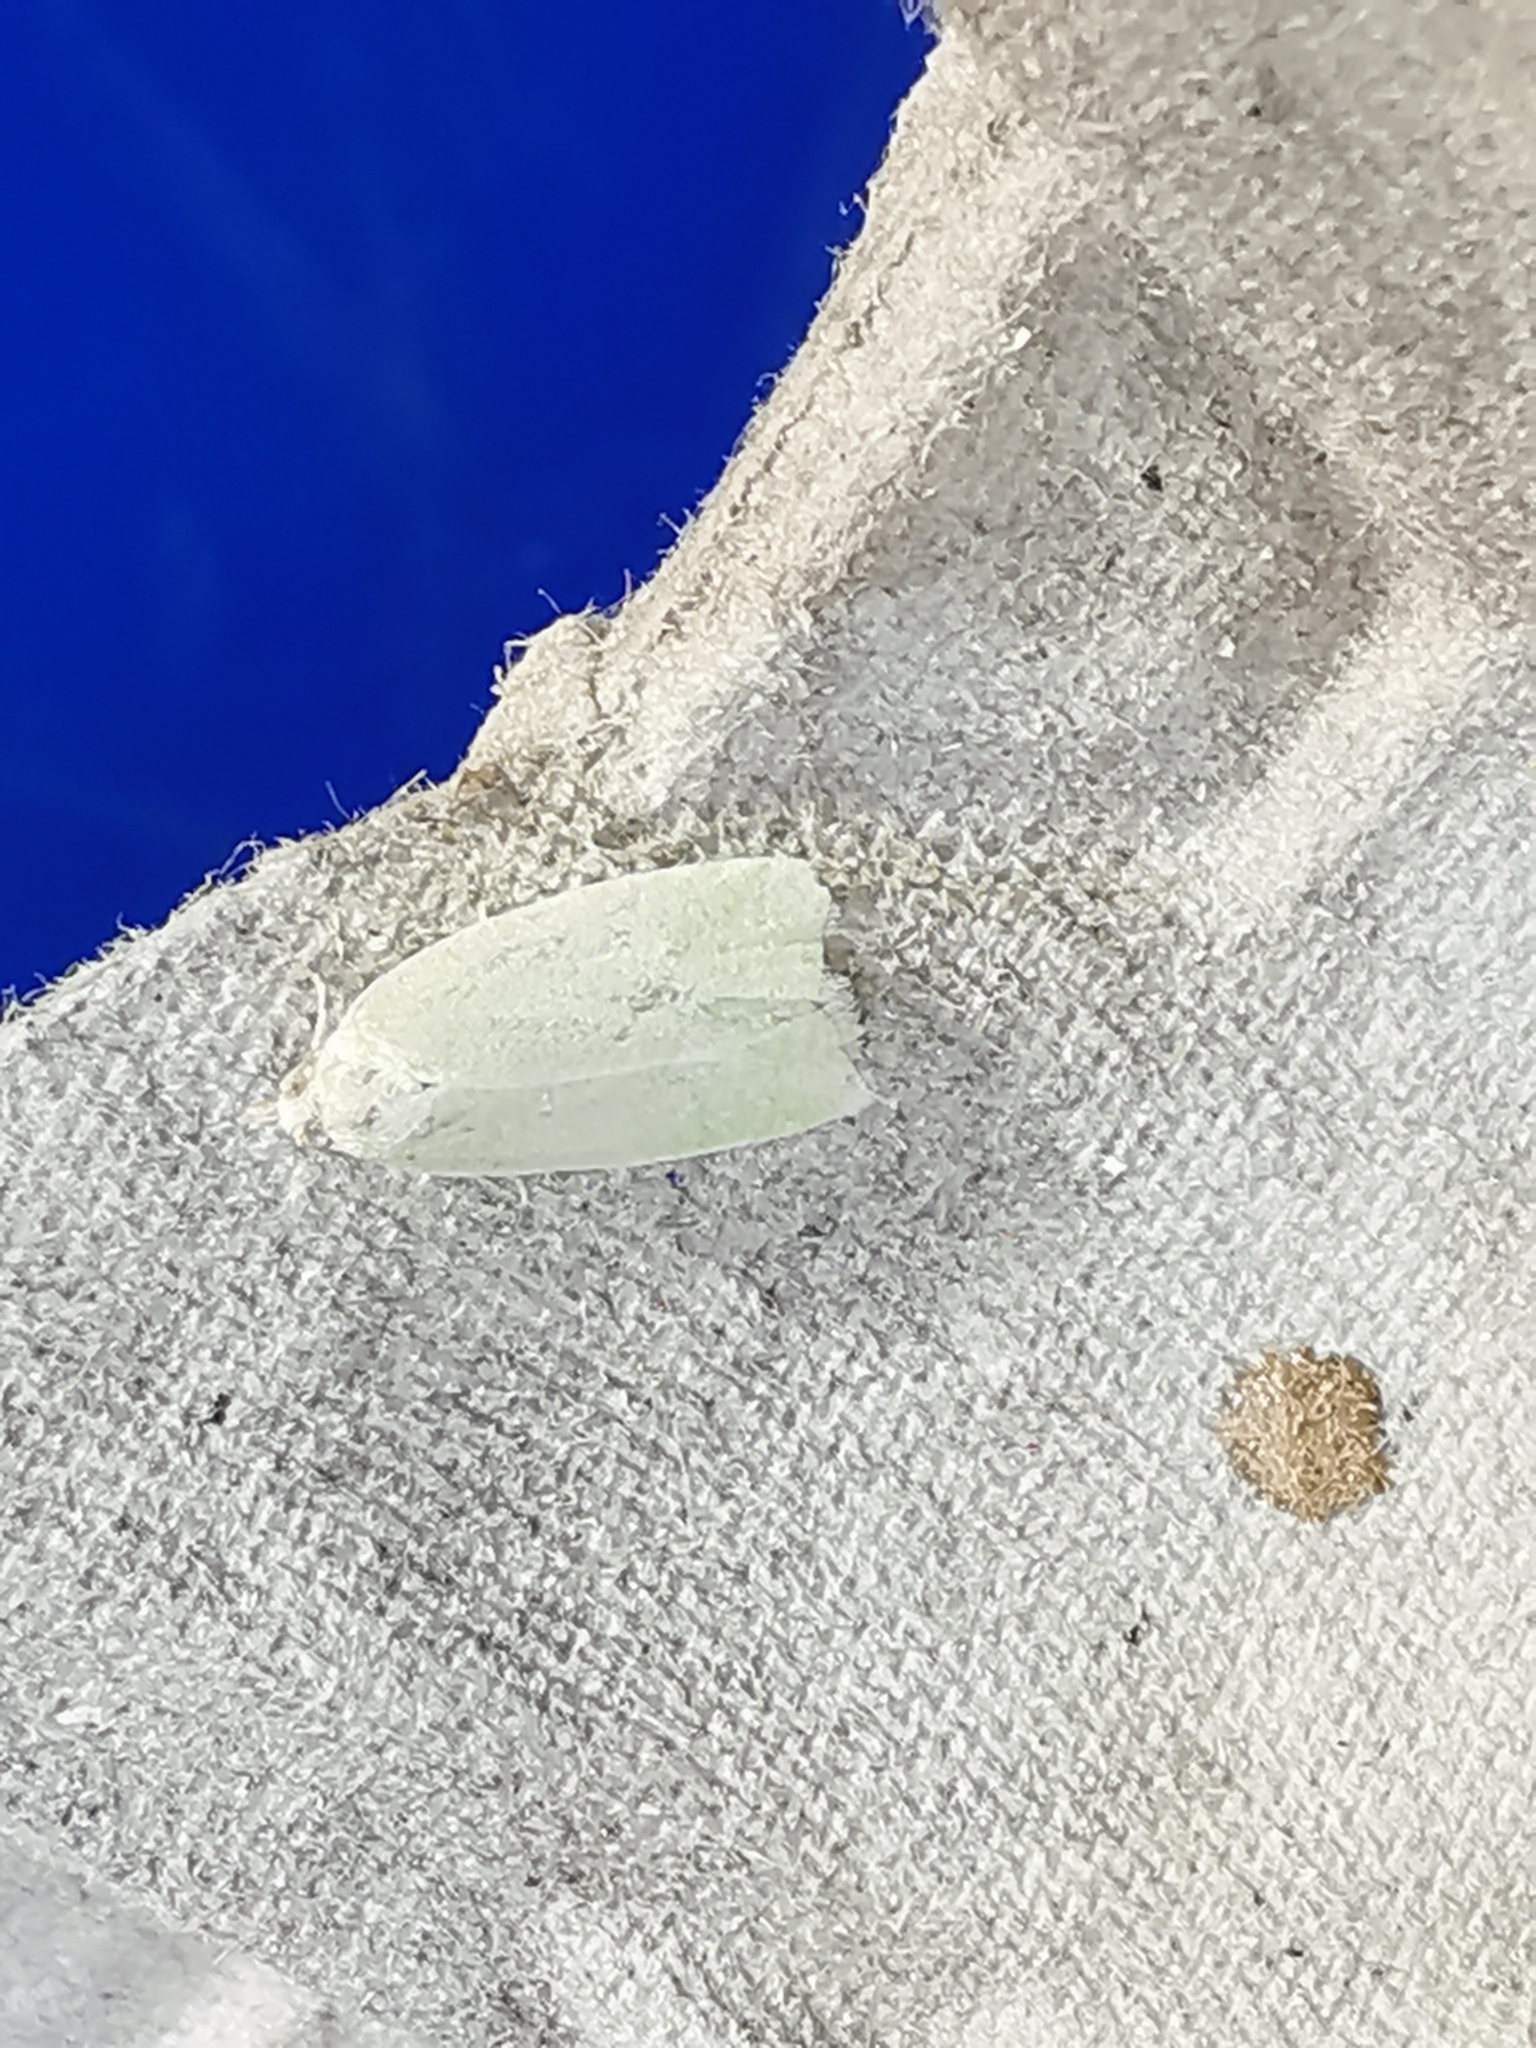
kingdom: Animalia
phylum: Arthropoda
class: Insecta
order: Lepidoptera
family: Tortricidae
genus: Tortrix
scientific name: Tortrix viridana
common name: Green oak tortrix
